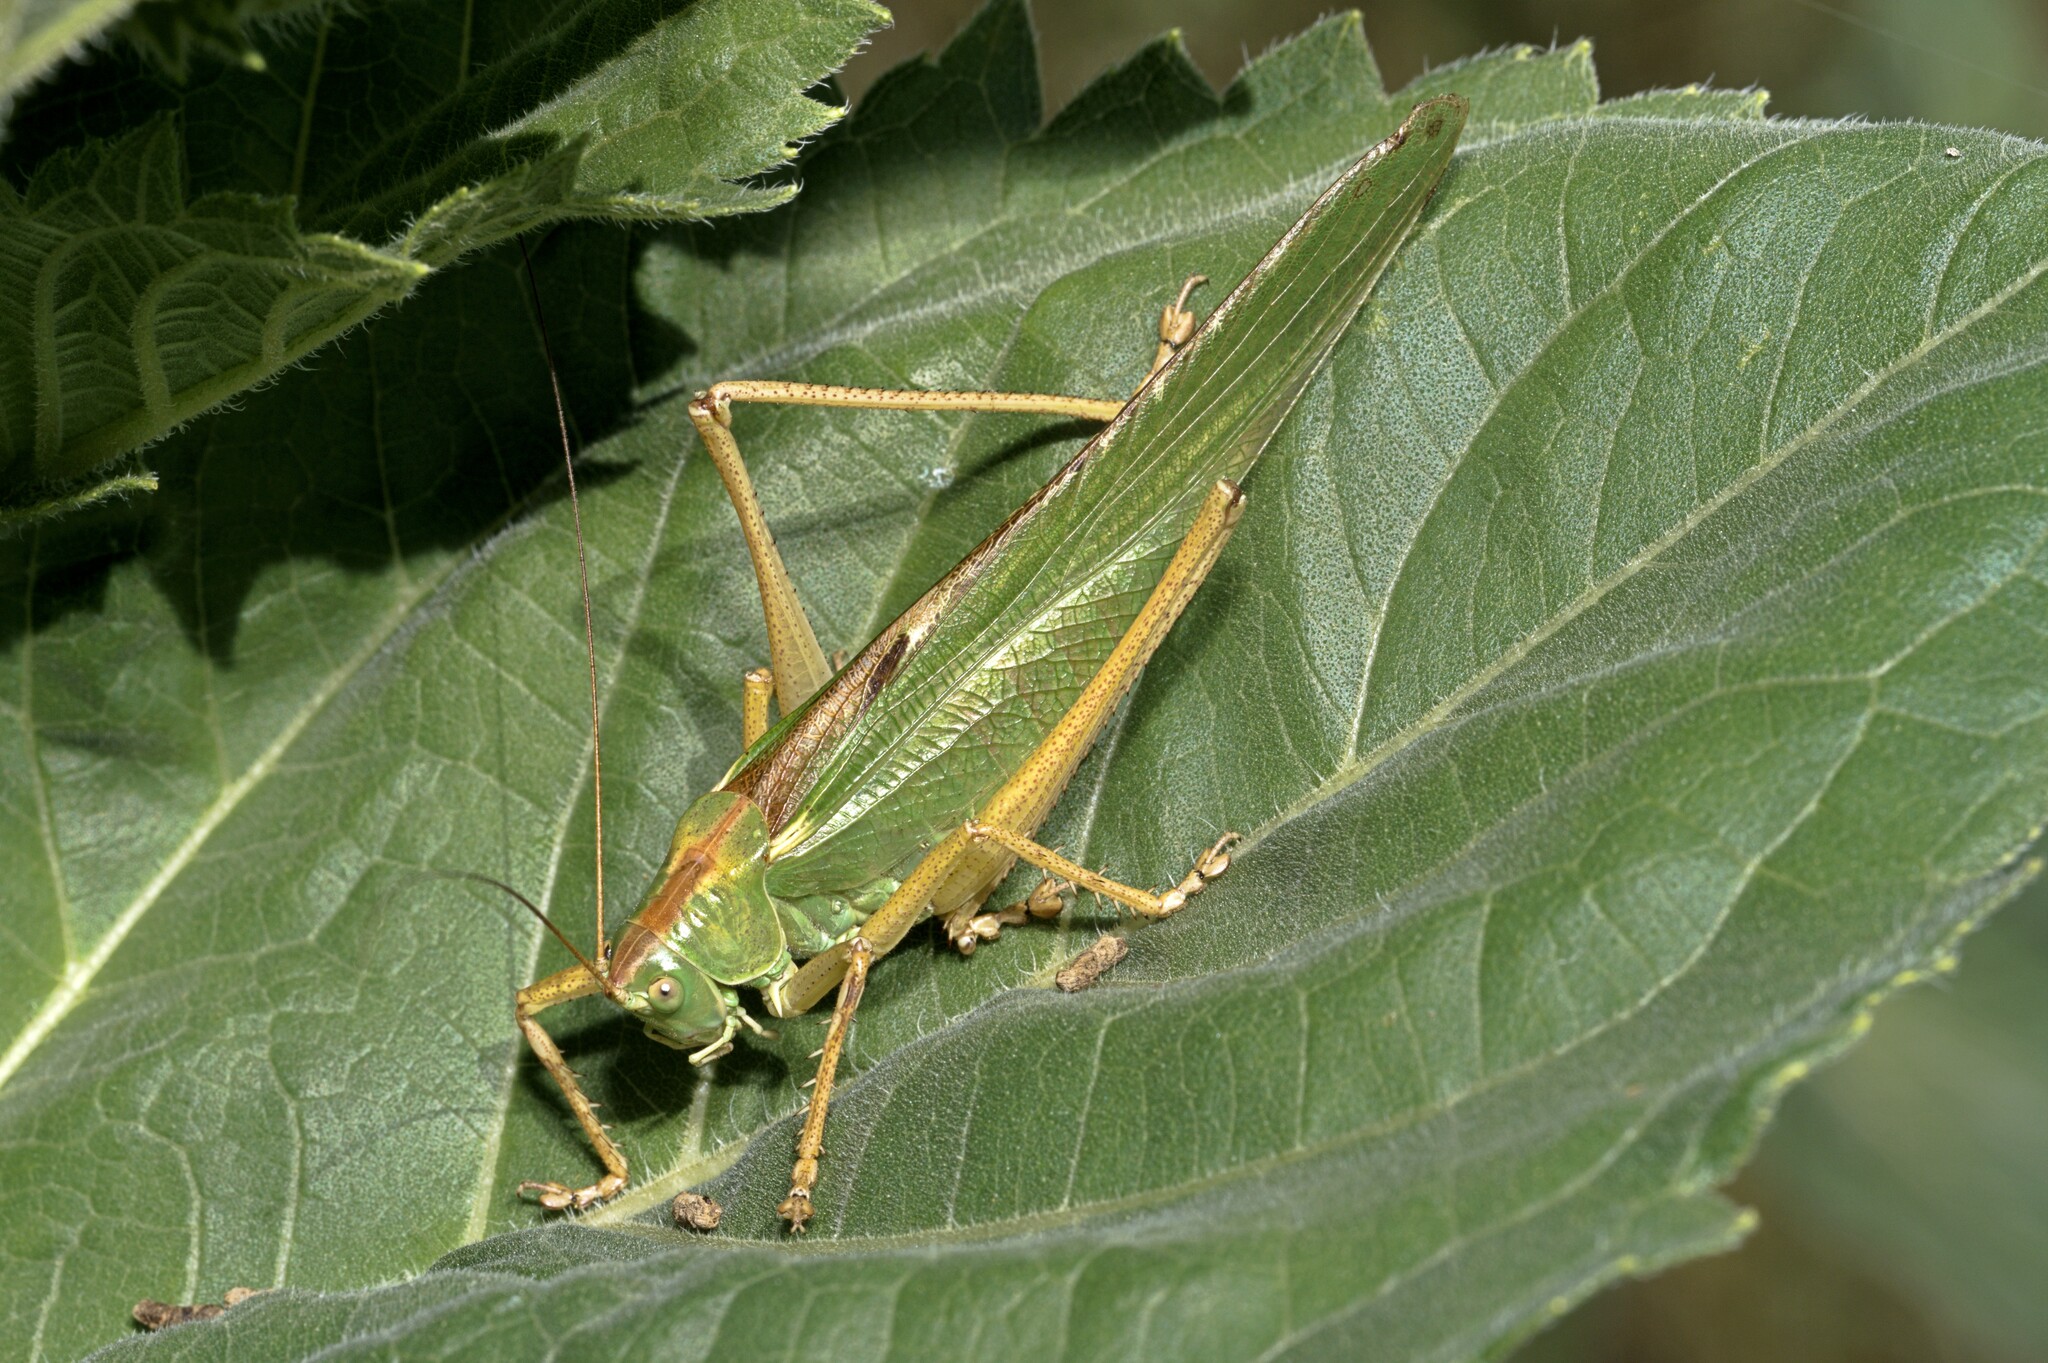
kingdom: Animalia
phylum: Arthropoda
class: Insecta
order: Orthoptera
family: Tettigoniidae
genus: Tettigonia
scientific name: Tettigonia viridissima
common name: Great green bush-cricket
